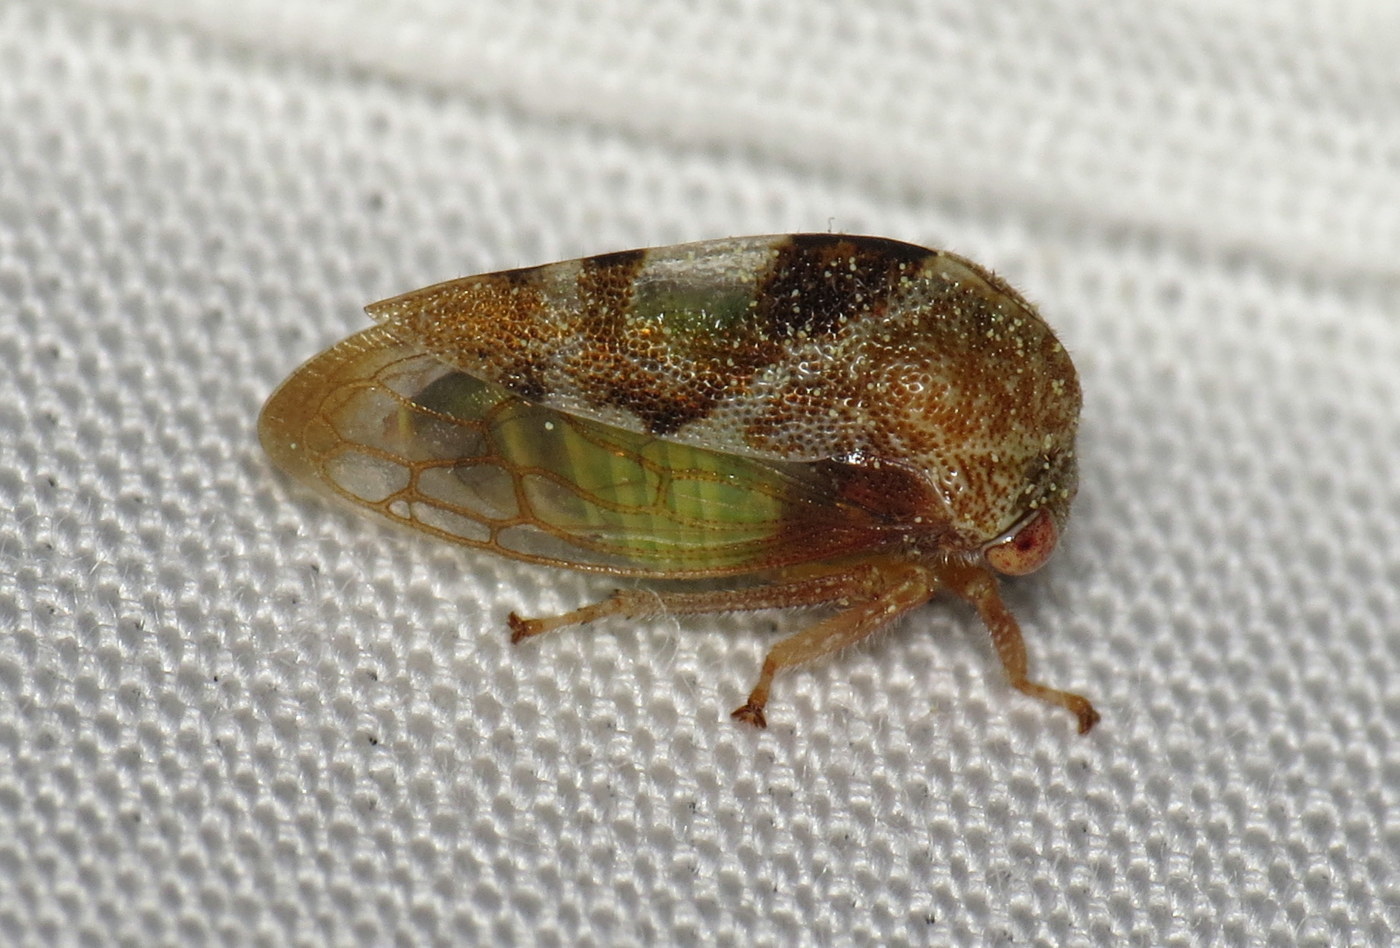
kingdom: Animalia
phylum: Arthropoda
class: Insecta
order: Hemiptera
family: Membracidae
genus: Cyrtolobus
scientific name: Cyrtolobus vau
